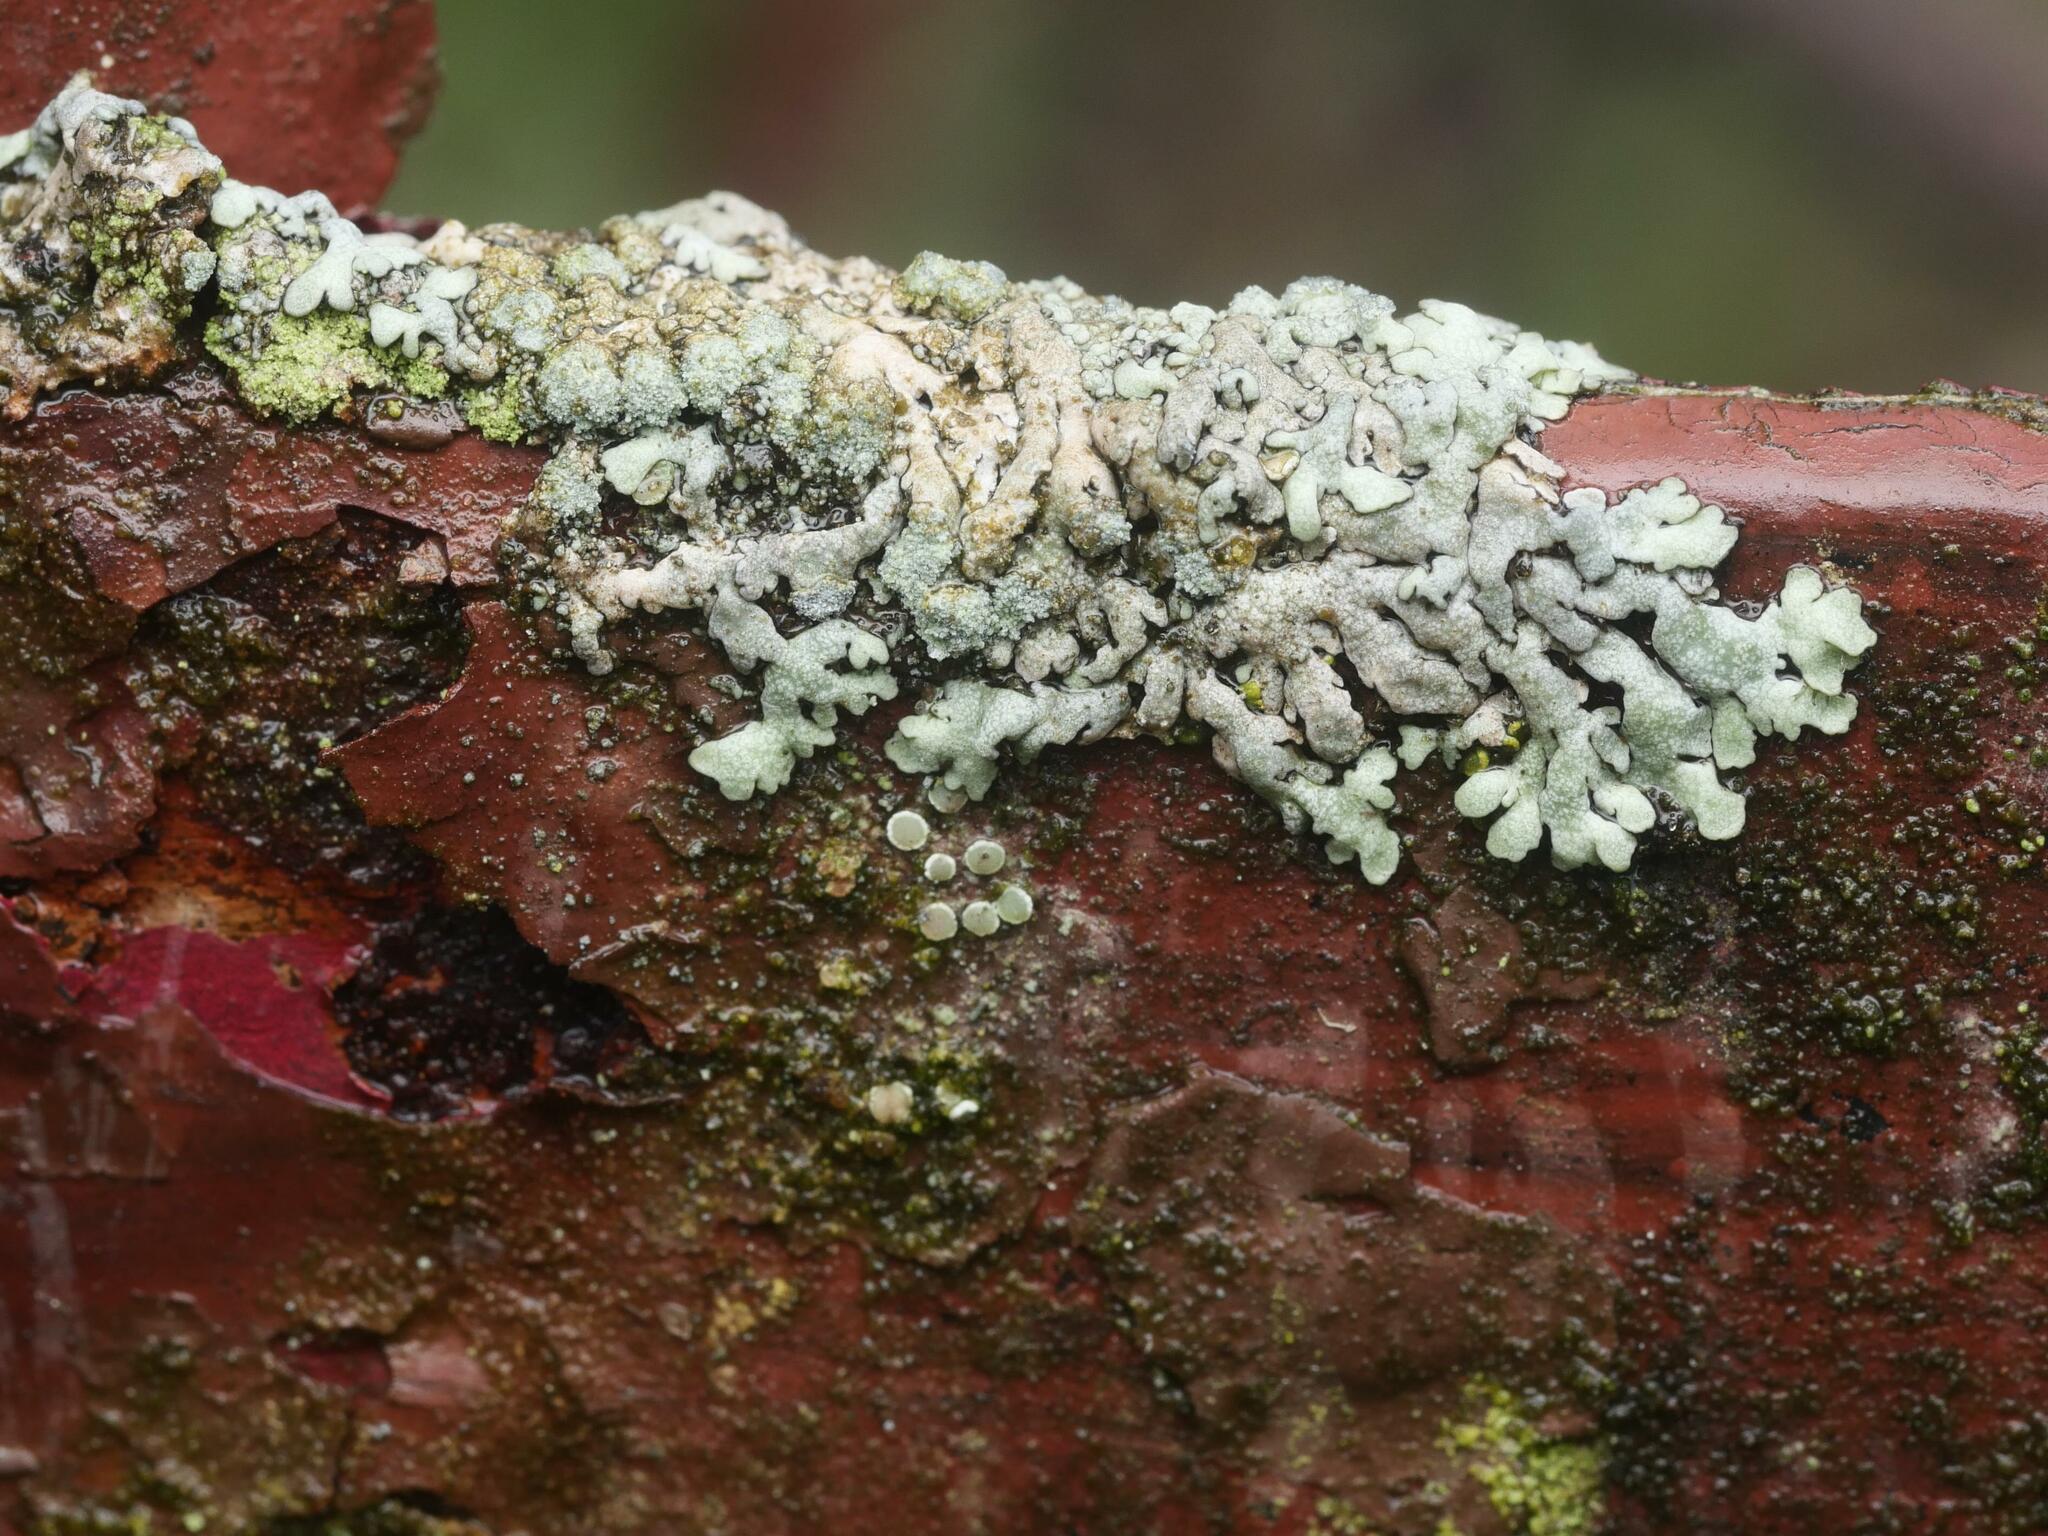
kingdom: Fungi
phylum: Ascomycota
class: Lecanoromycetes
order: Caliciales
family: Physciaceae
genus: Physcia
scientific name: Physcia caesia
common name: Blue-gray rosette lichen
